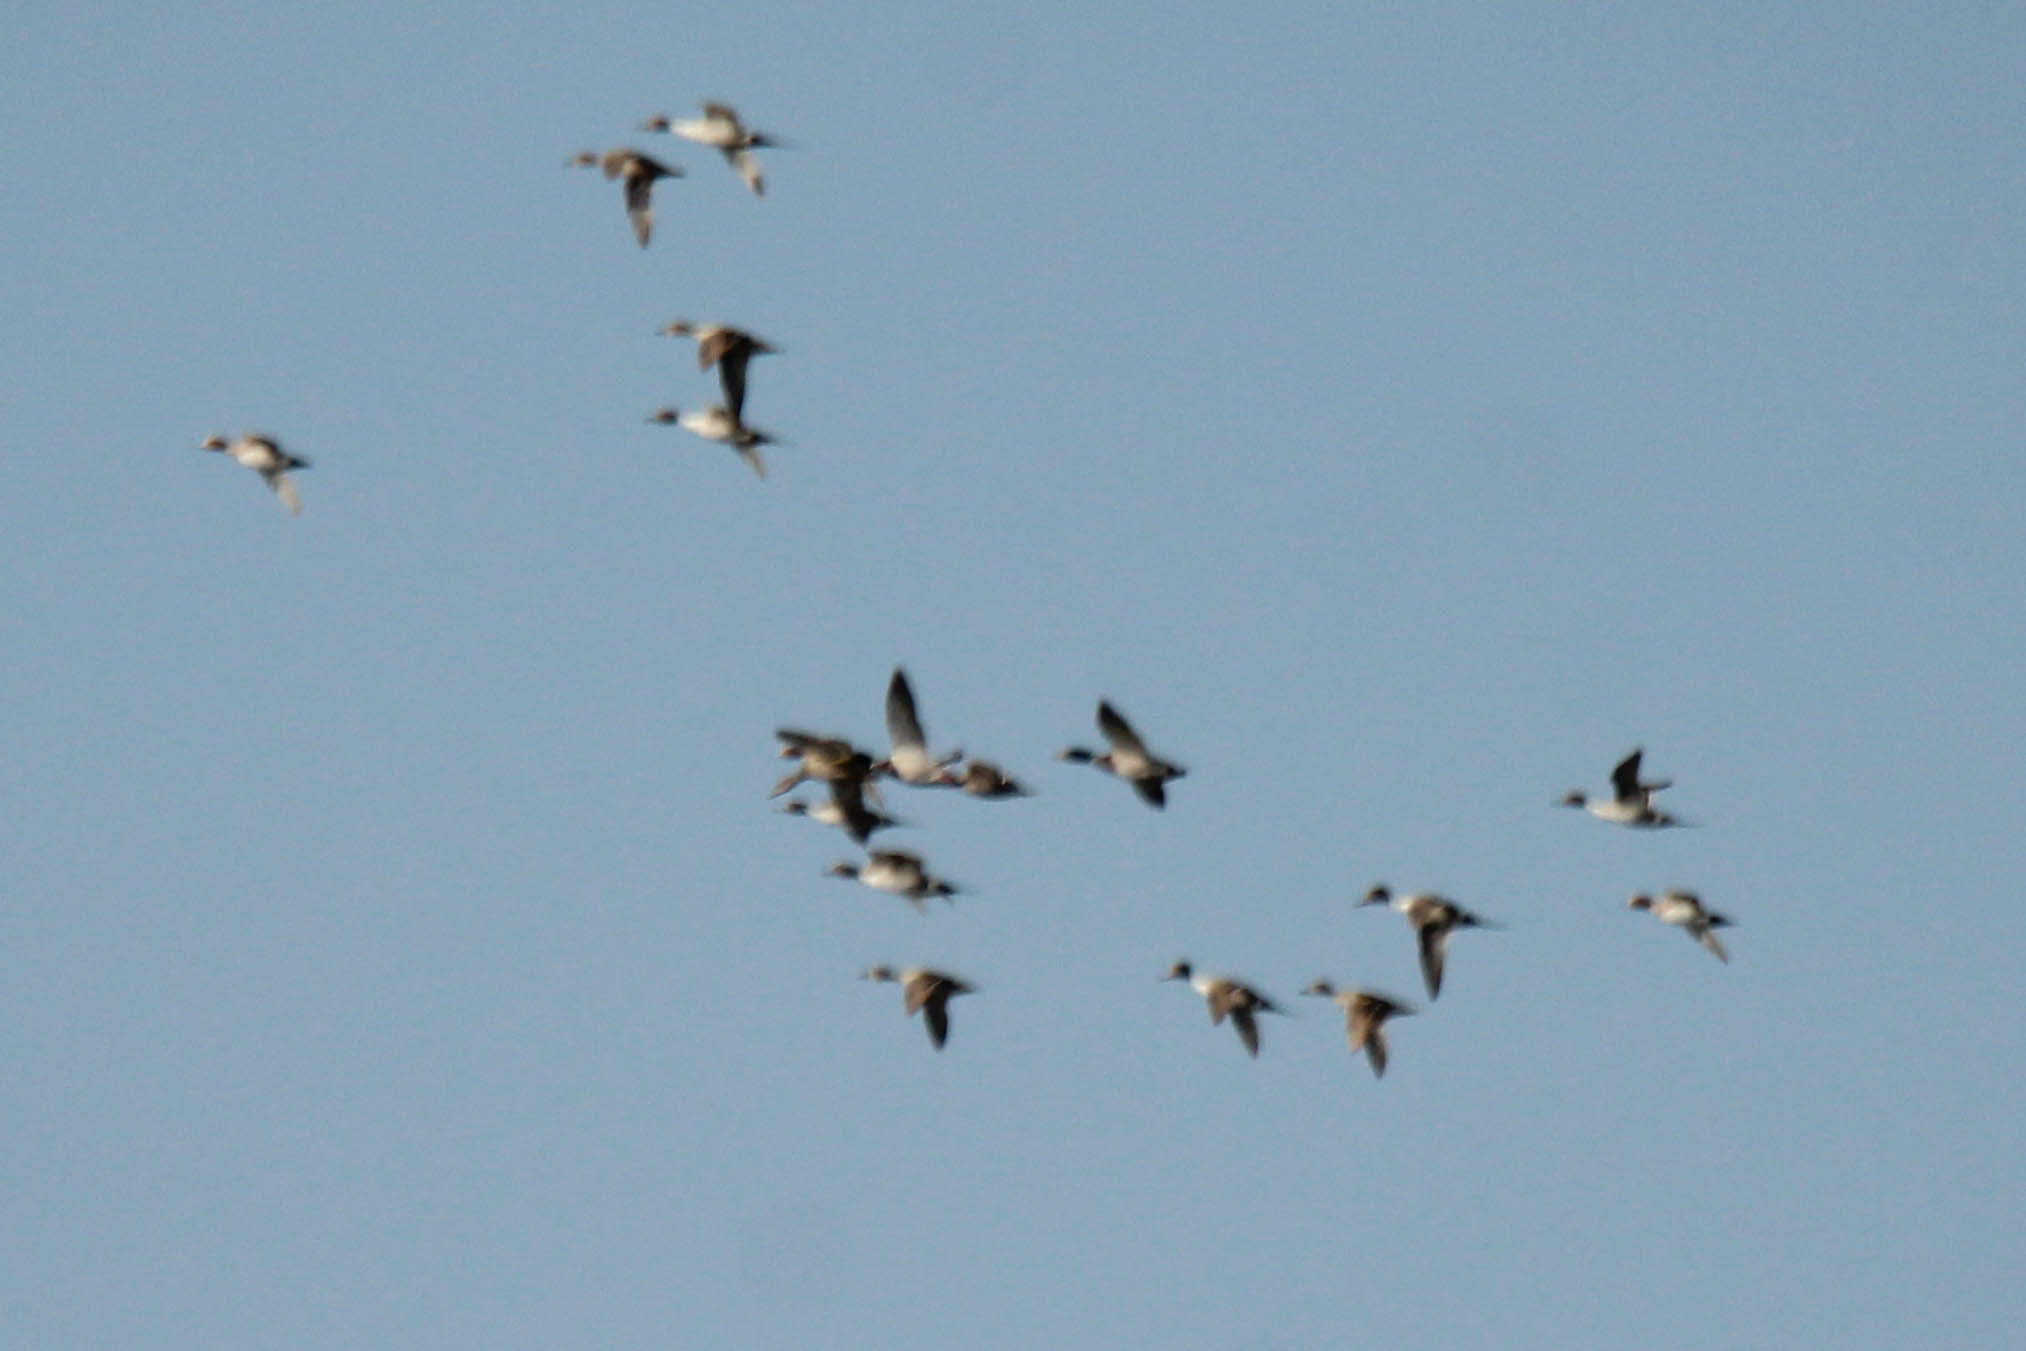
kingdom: Animalia
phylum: Chordata
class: Aves
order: Anseriformes
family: Anatidae
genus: Anas
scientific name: Anas acuta
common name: Northern pintail
